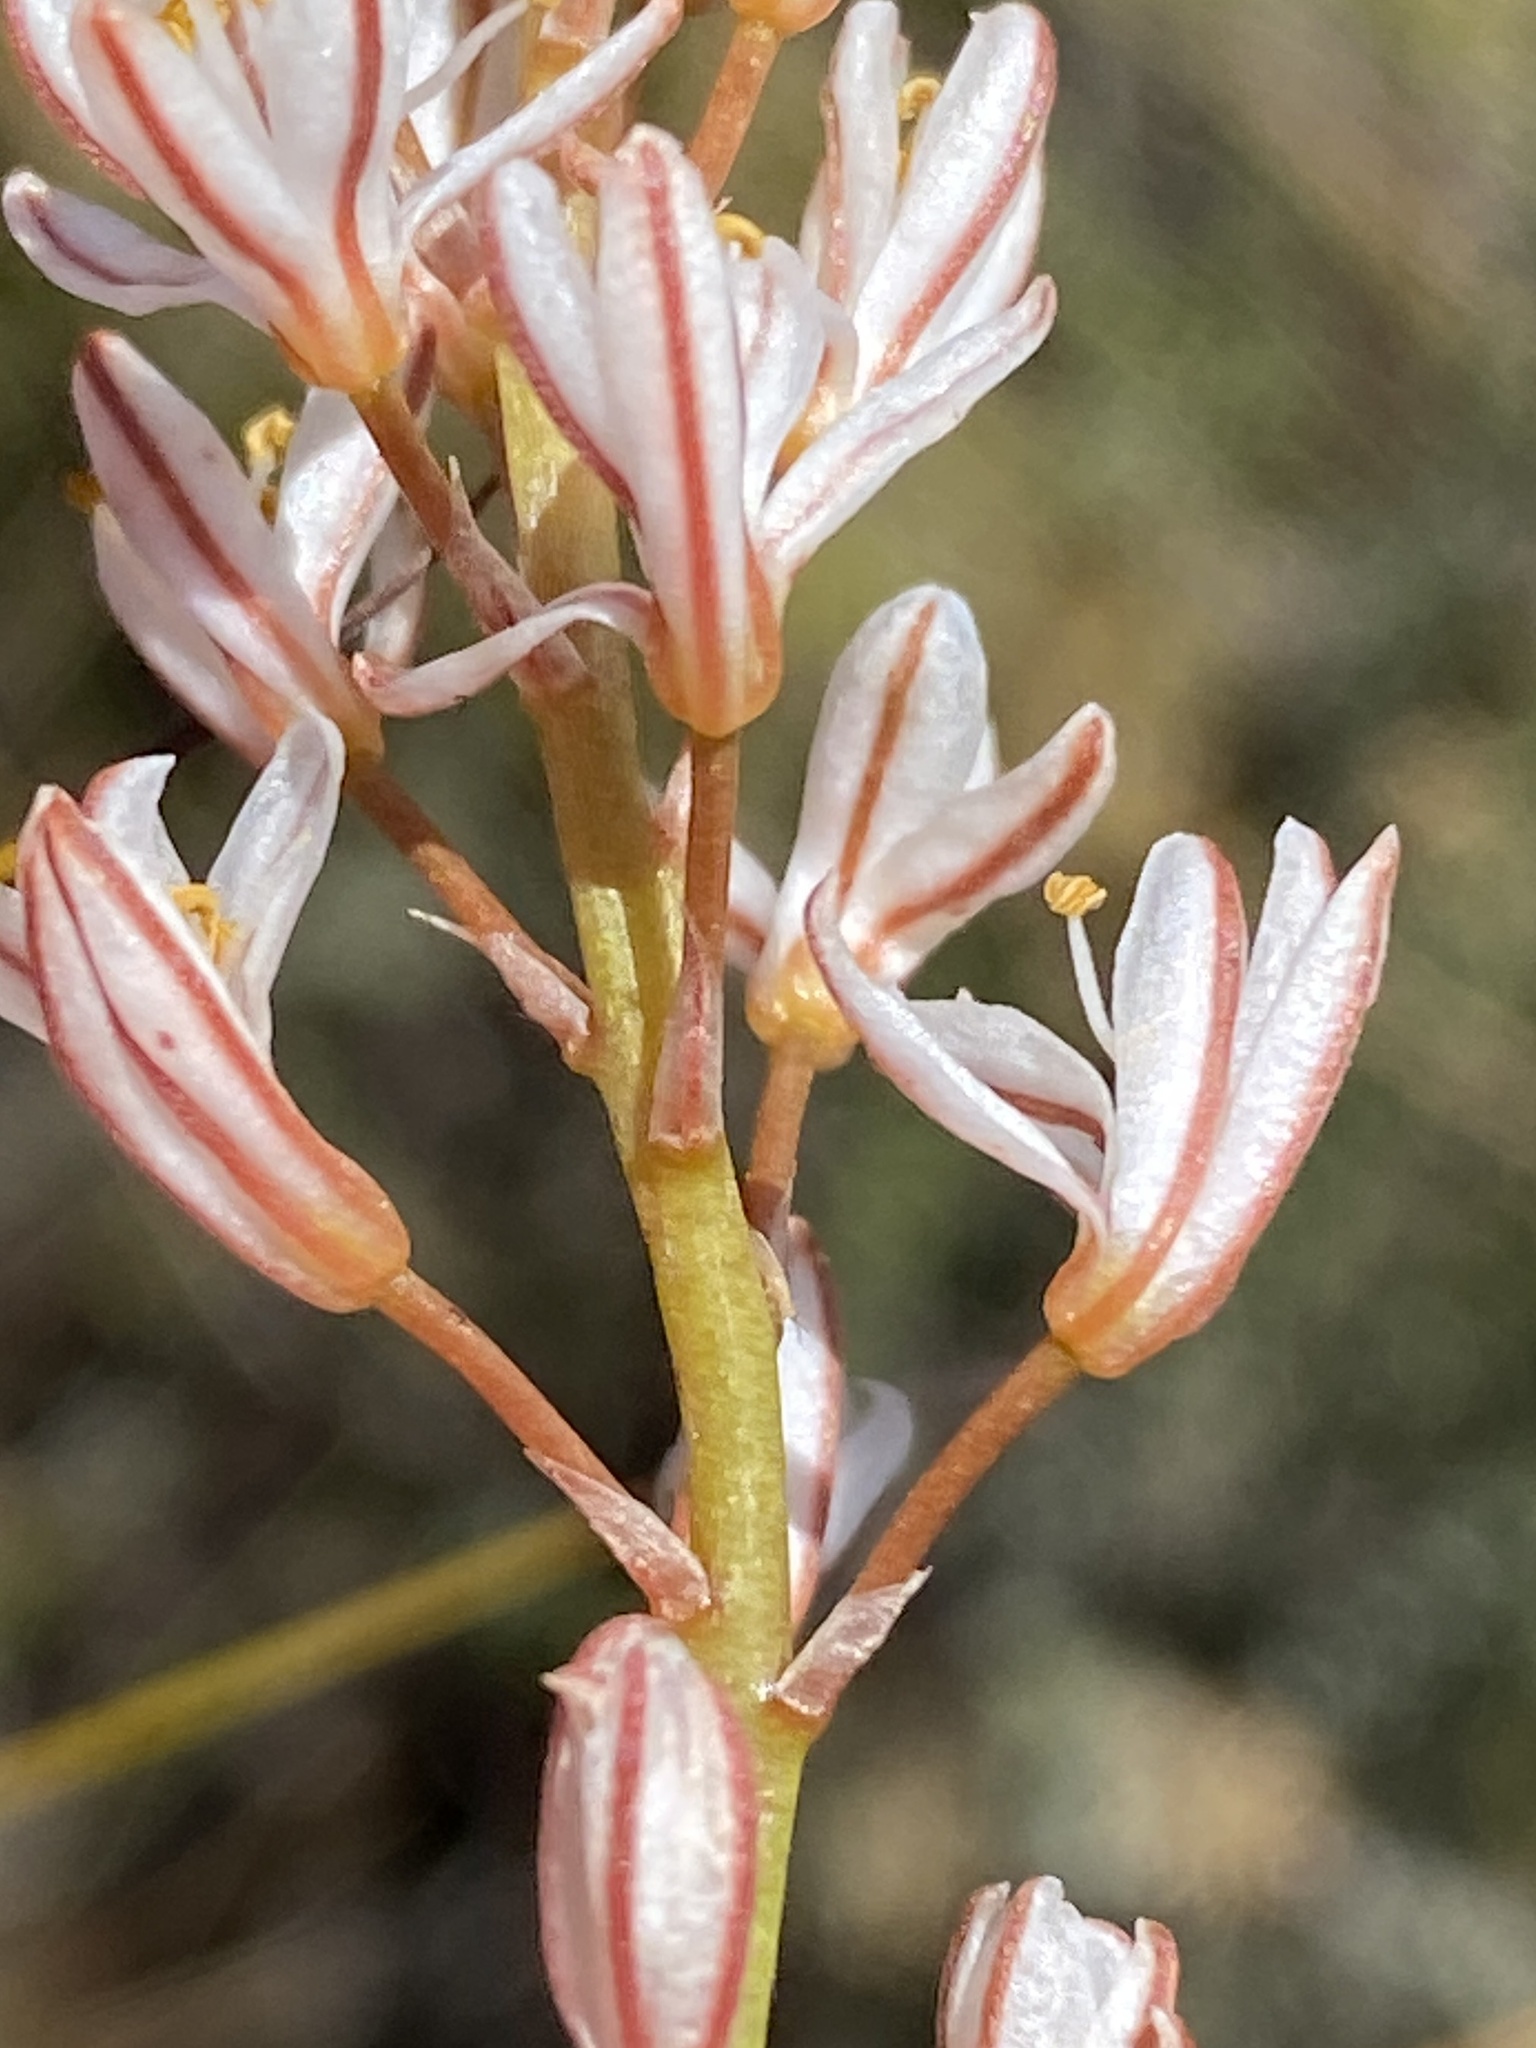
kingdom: Plantae
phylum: Tracheophyta
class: Liliopsida
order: Asparagales
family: Asphodelaceae
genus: Trachyandra
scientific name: Trachyandra esterhuysenae
